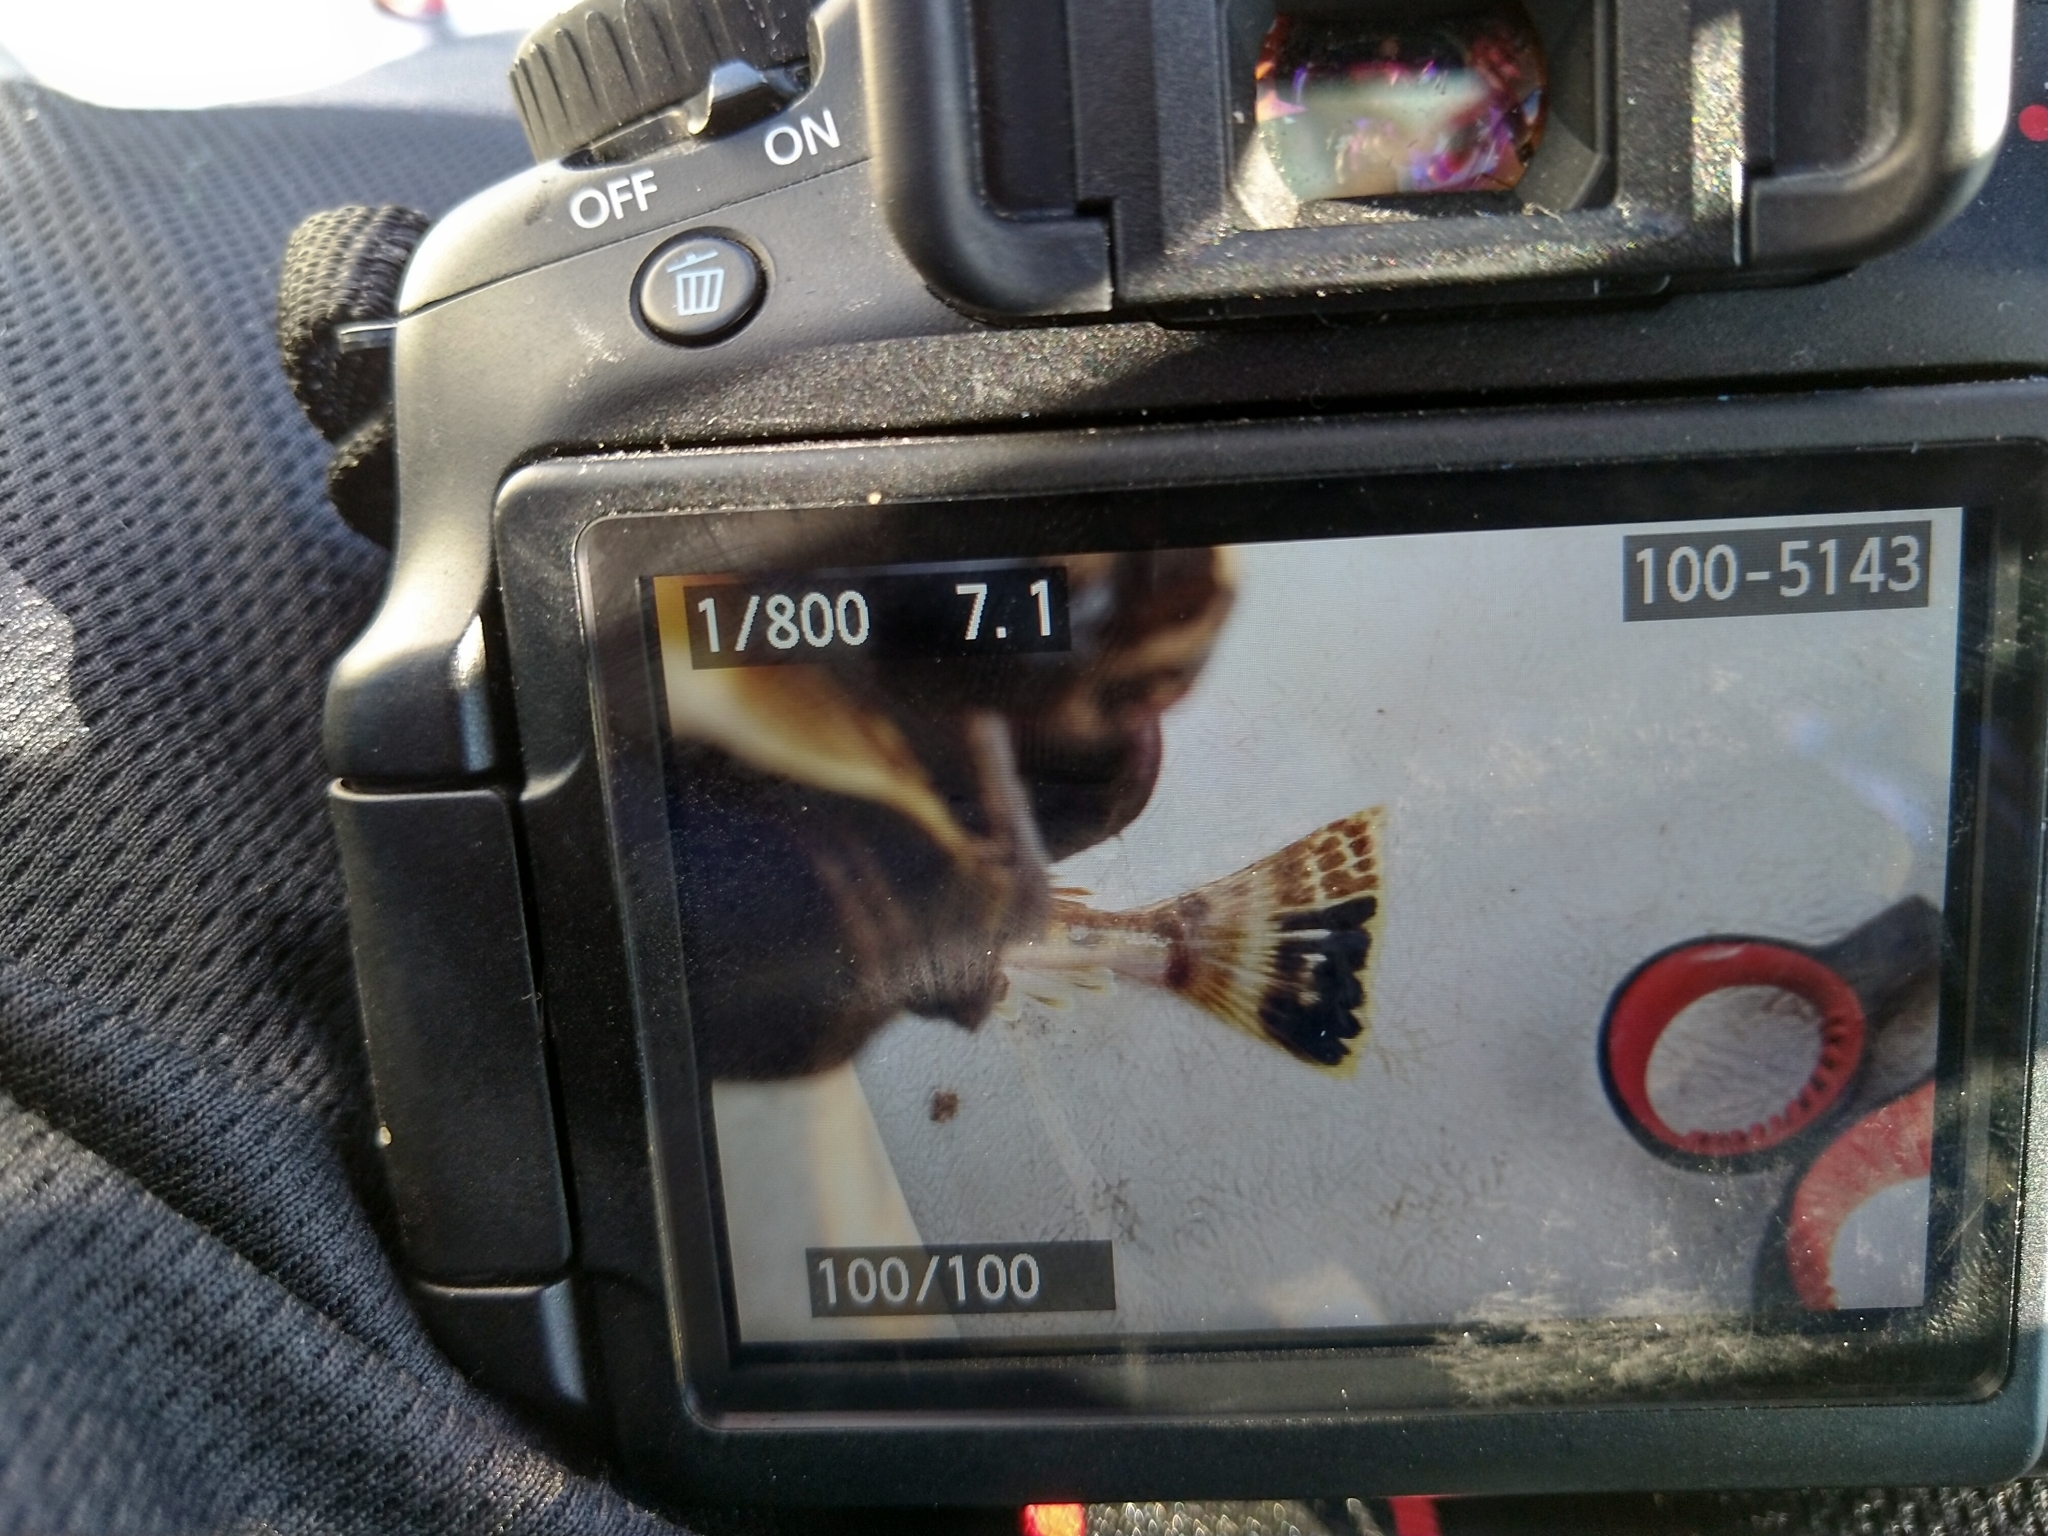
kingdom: Animalia
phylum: Chordata
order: Scorpaeniformes
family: Platycephalidae
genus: Platycephalus
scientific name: Platycephalus bassensis
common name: Sand flathead
